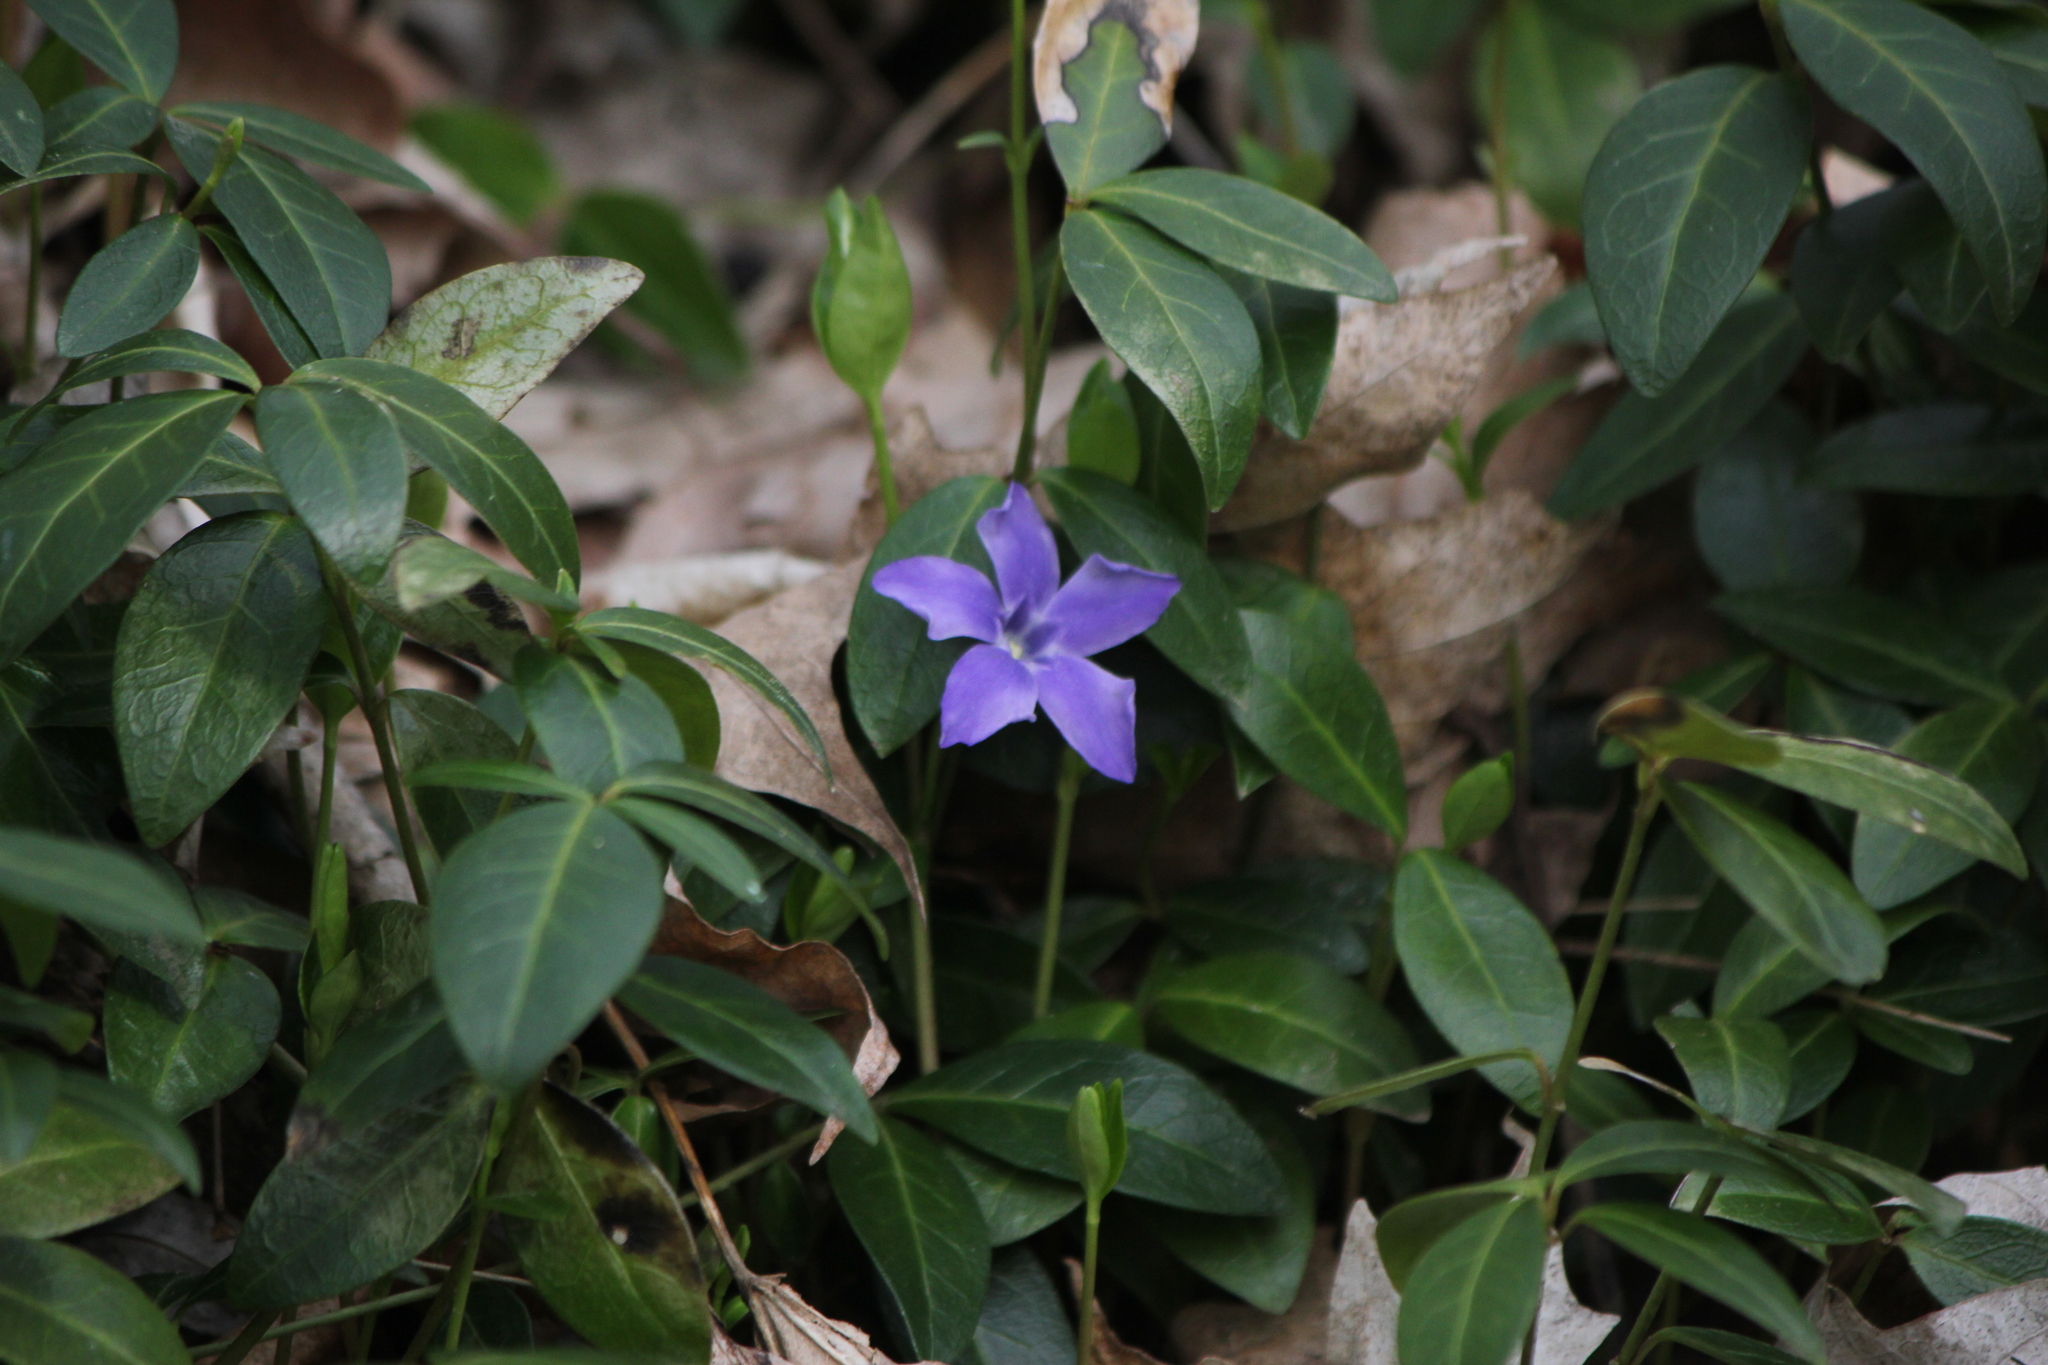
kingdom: Plantae
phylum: Tracheophyta
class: Magnoliopsida
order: Gentianales
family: Apocynaceae
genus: Vinca
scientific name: Vinca minor
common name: Lesser periwinkle
